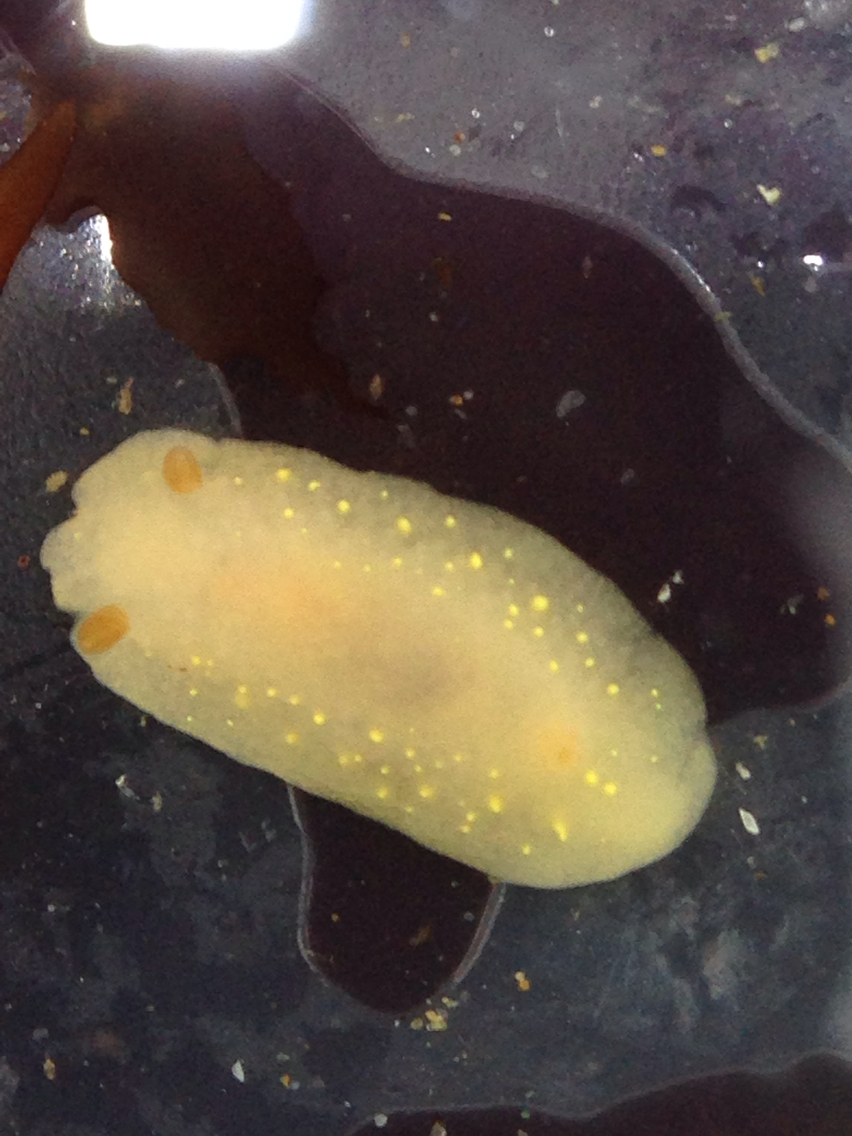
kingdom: Animalia
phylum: Mollusca
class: Gastropoda
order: Nudibranchia
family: Cadlinidae
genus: Cadlina
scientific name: Cadlina modesta
